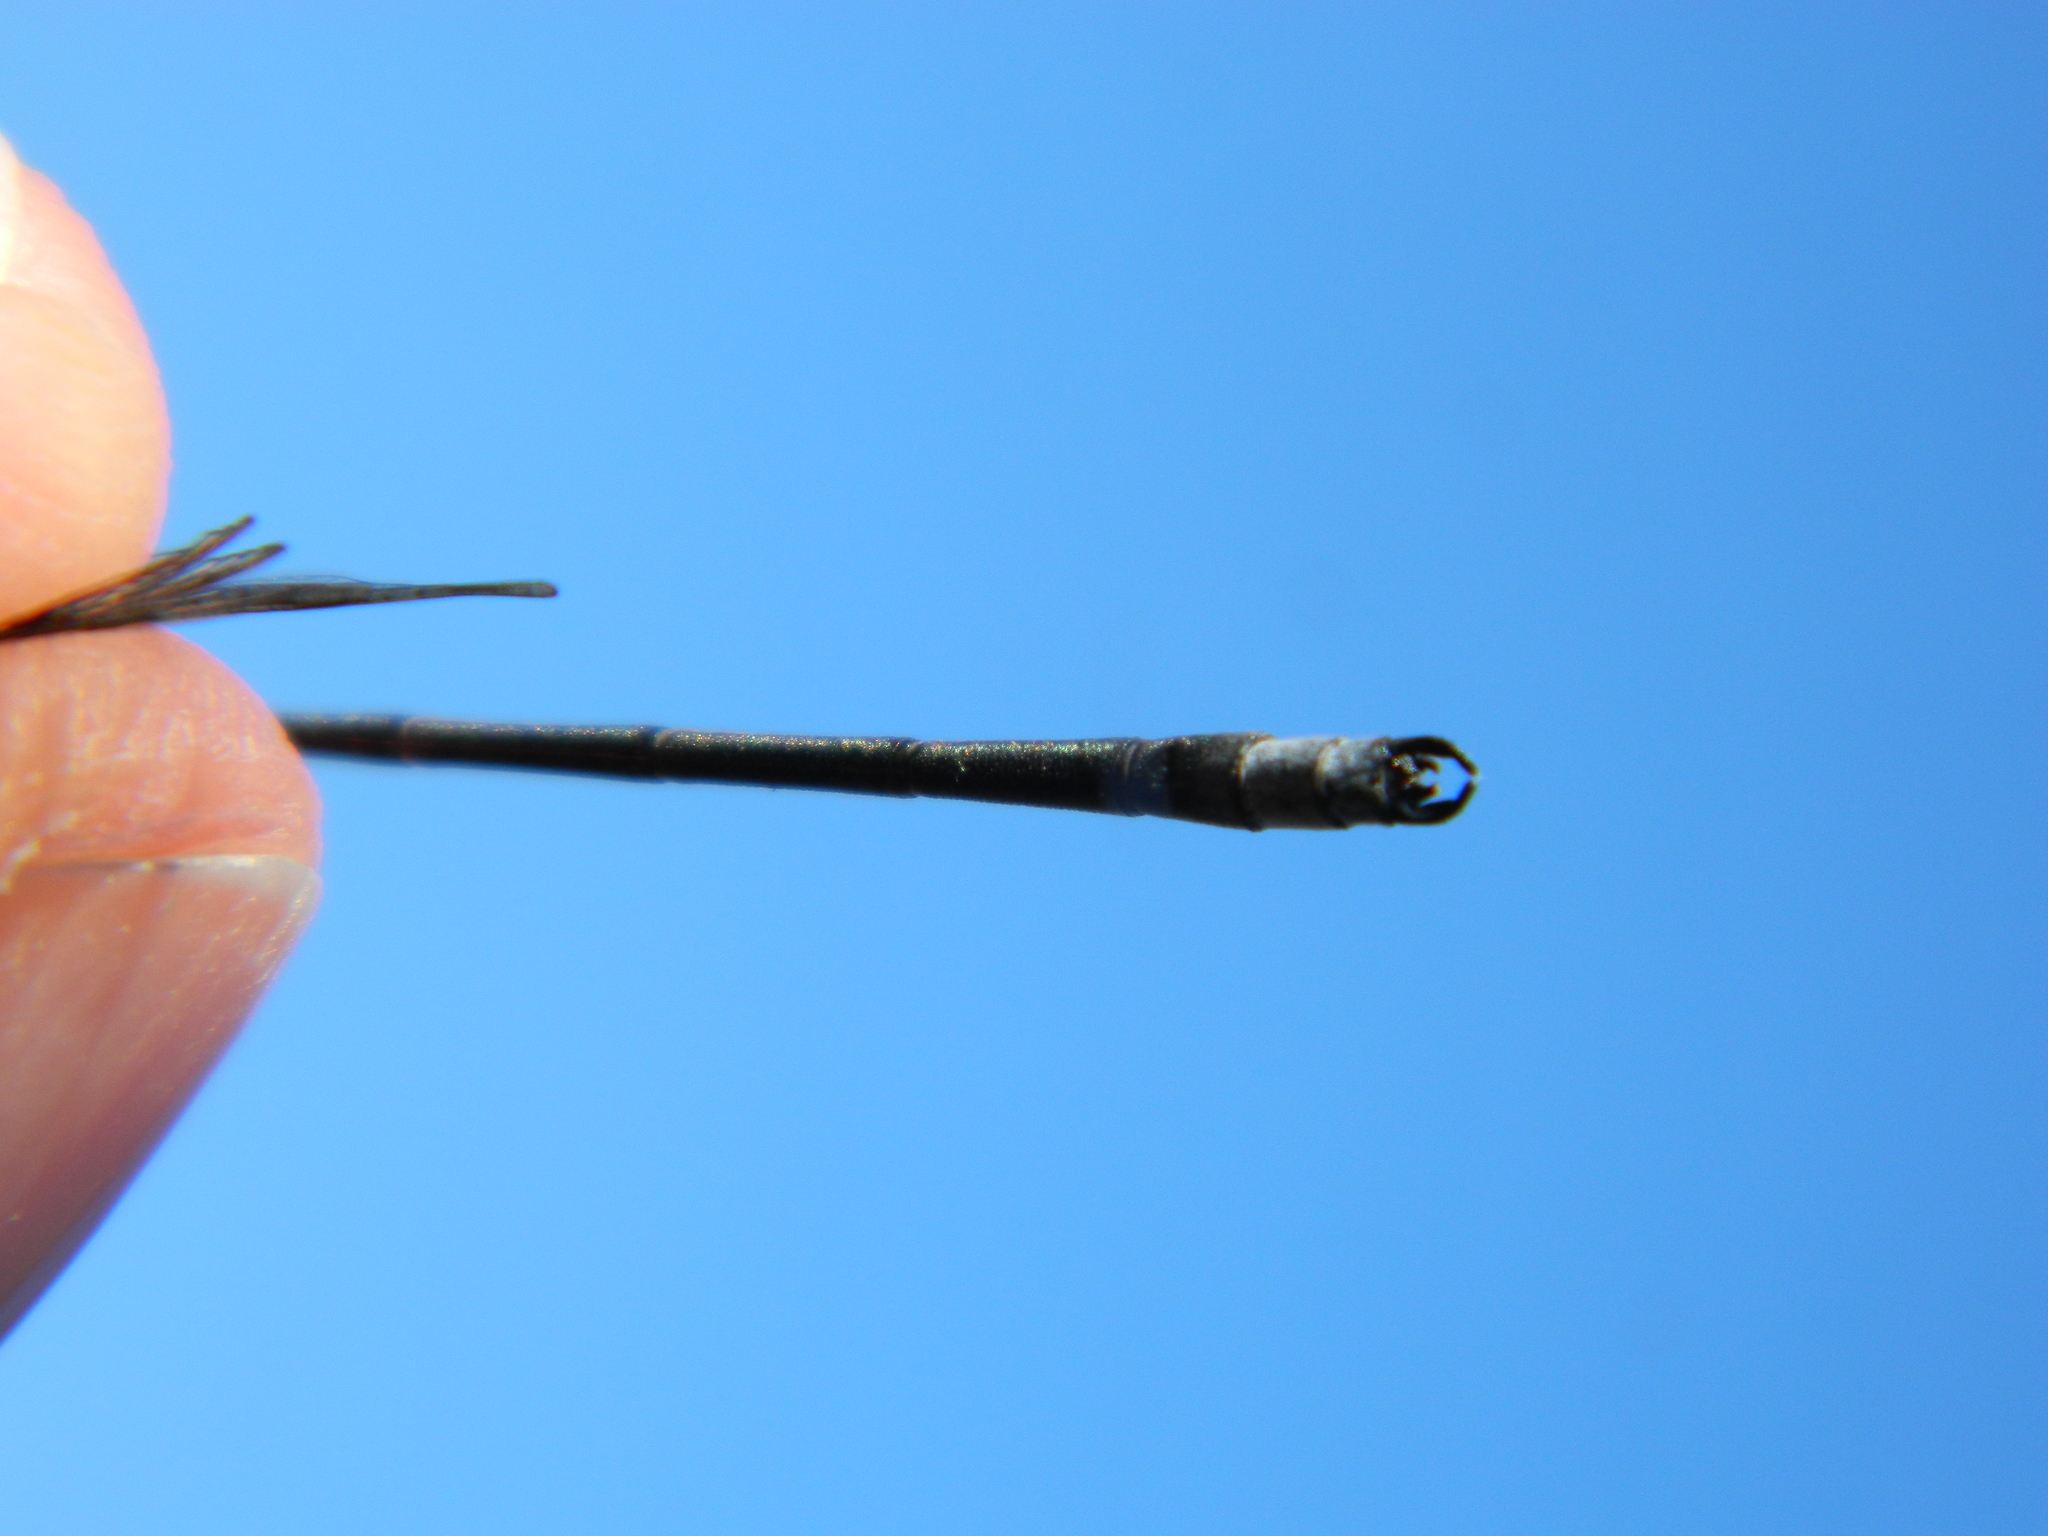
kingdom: Animalia
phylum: Arthropoda
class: Insecta
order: Odonata
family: Lestidae
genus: Lestes
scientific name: Lestes congener
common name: Spotted spreadwing
